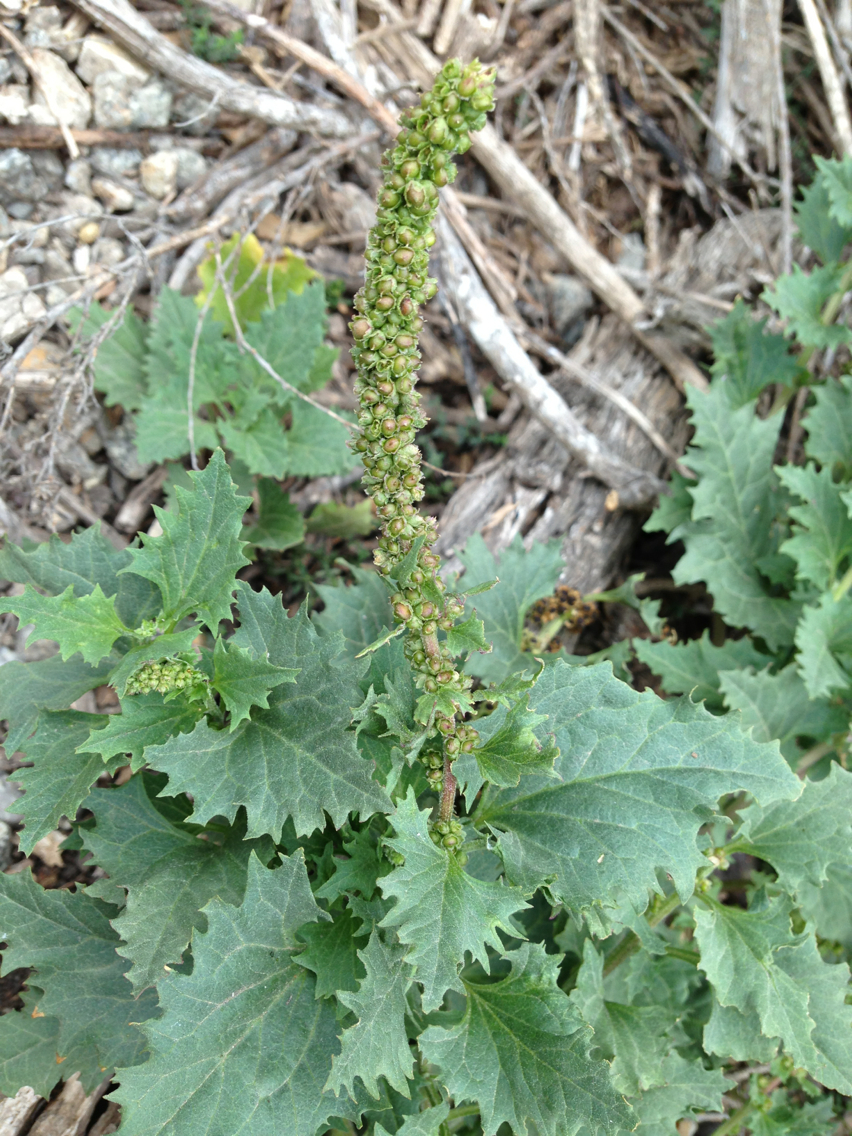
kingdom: Plantae
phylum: Tracheophyta
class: Magnoliopsida
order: Caryophyllales
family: Amaranthaceae
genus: Blitum
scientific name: Blitum californicum
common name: California goosefoot
